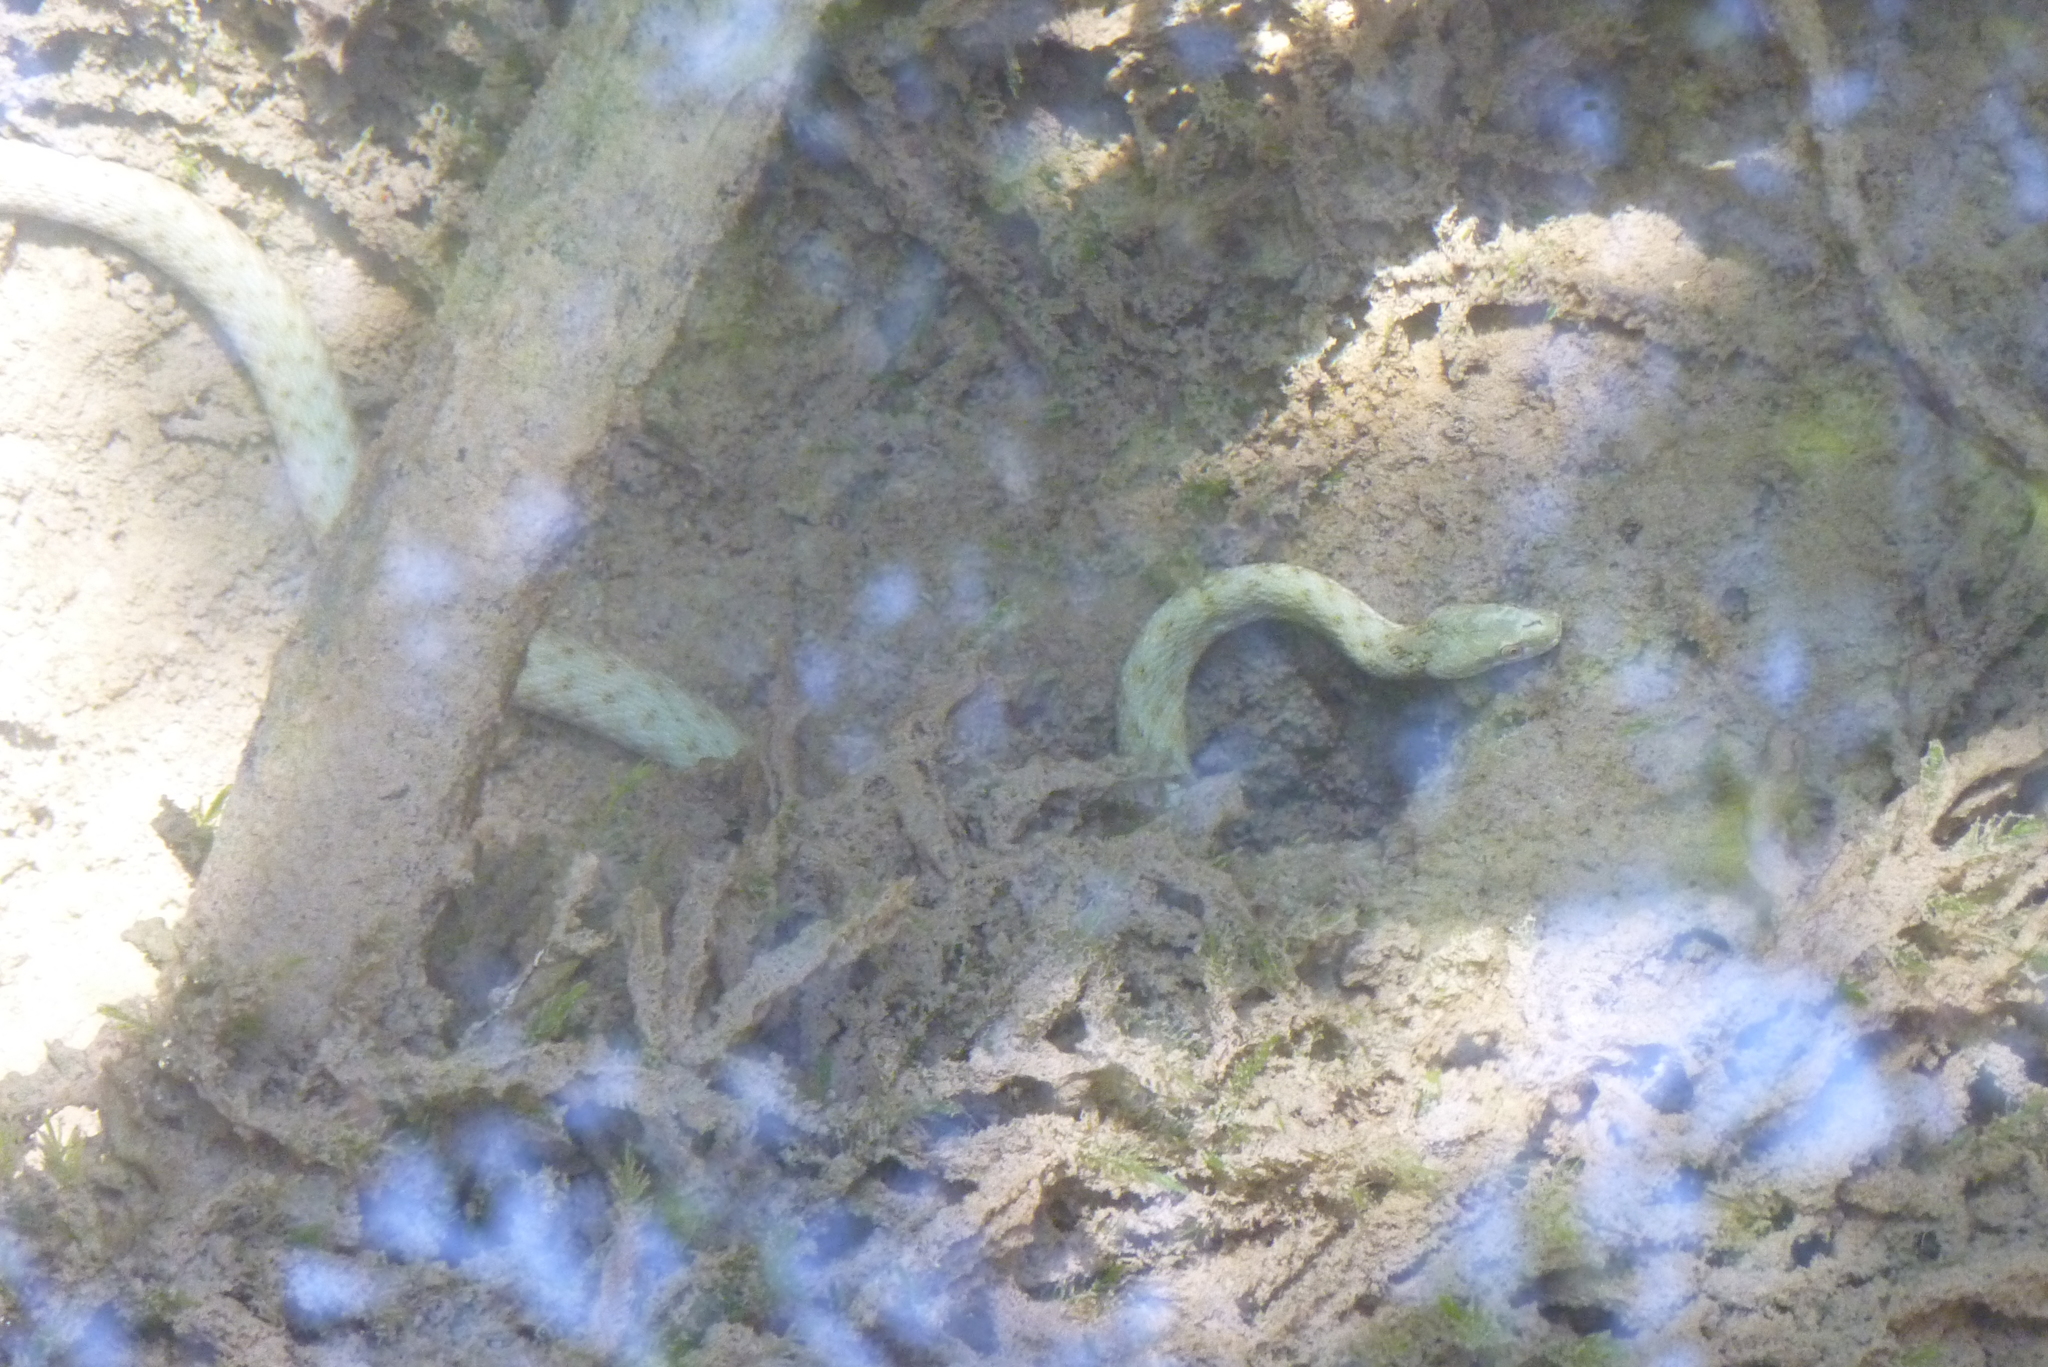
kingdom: Animalia
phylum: Chordata
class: Squamata
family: Colubridae
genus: Natrix
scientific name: Natrix tessellata
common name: Dice snake
